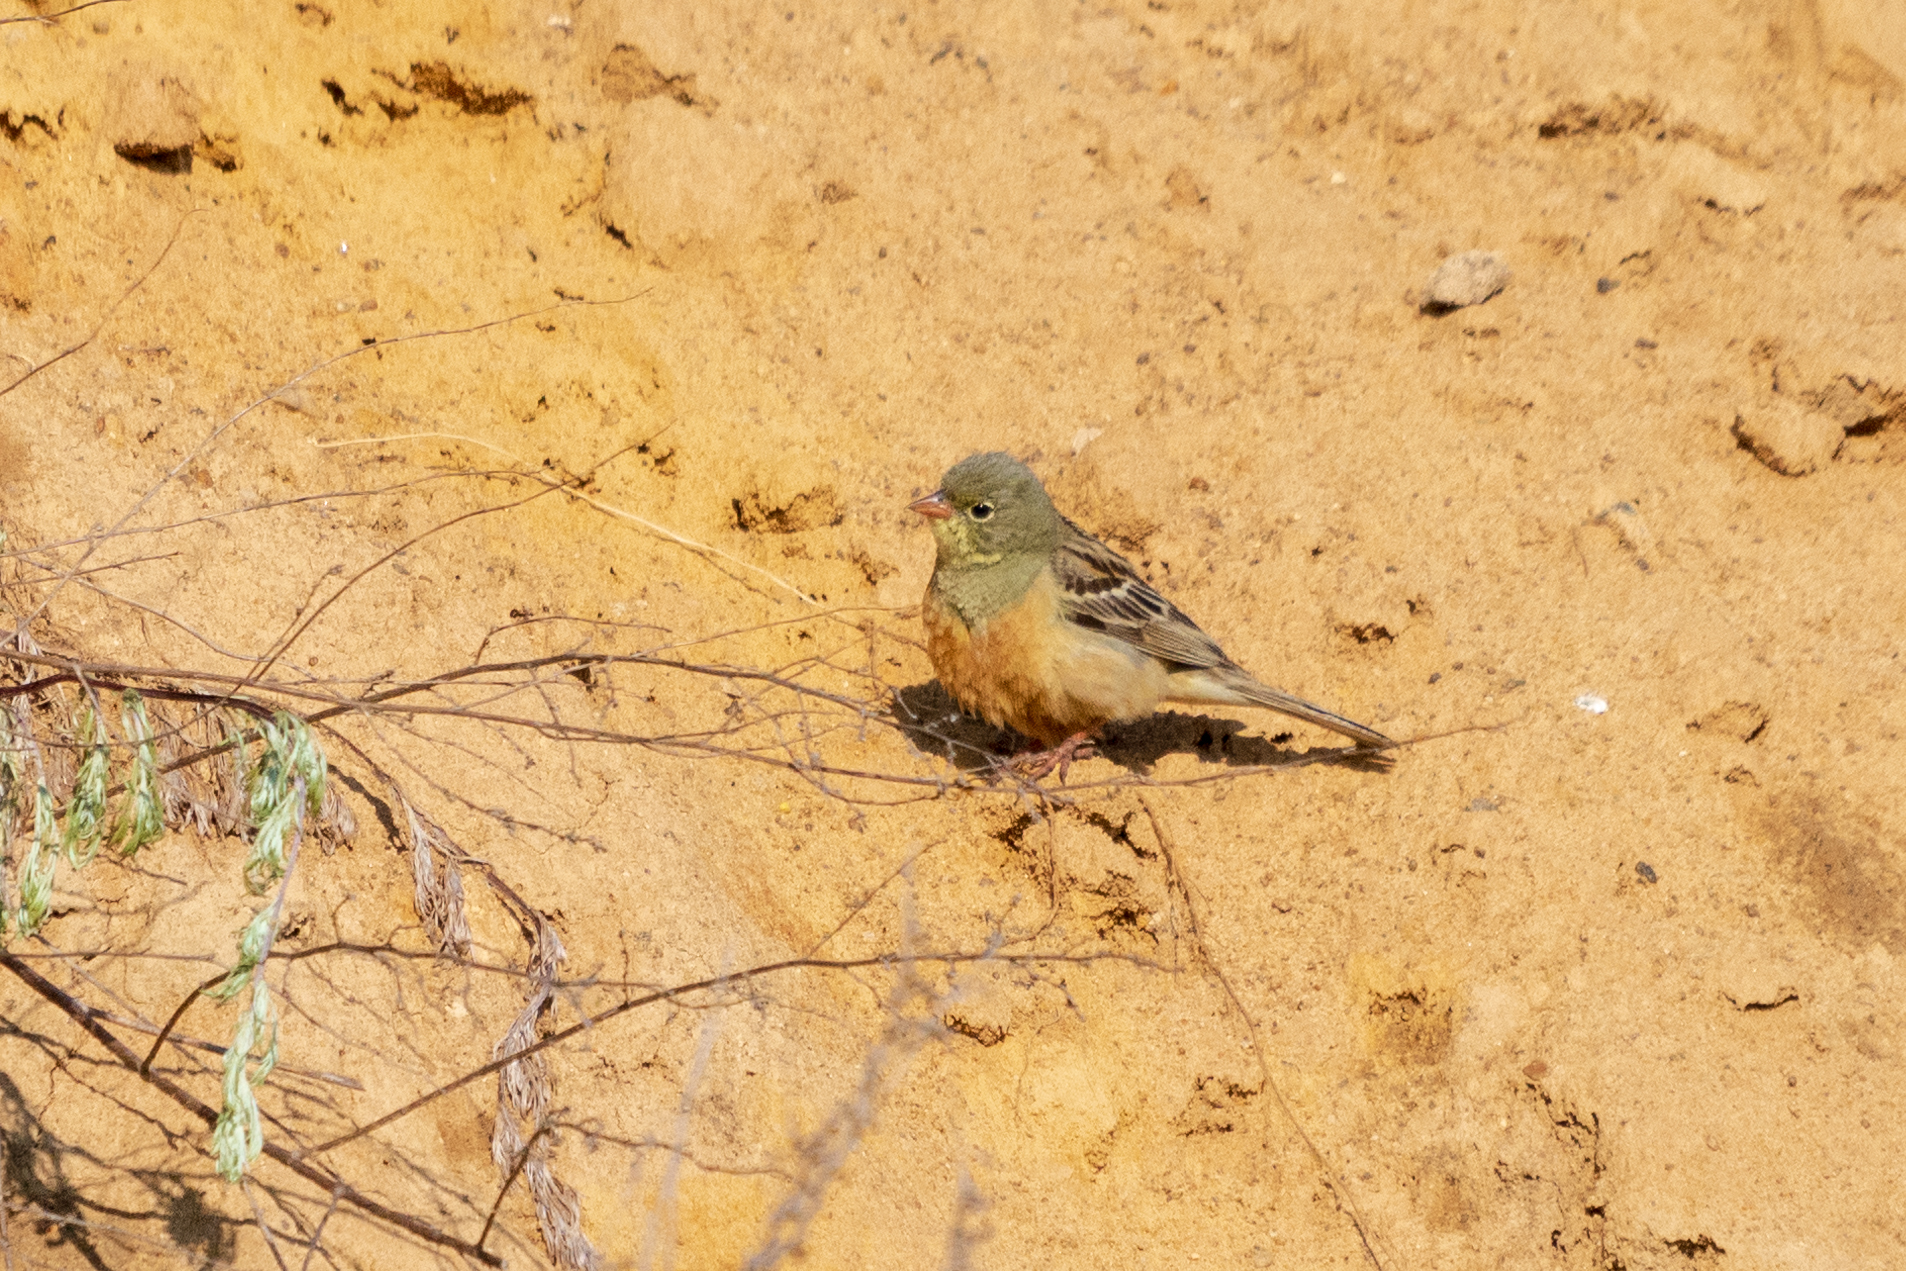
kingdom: Animalia
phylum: Chordata
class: Aves
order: Passeriformes
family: Emberizidae
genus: Emberiza
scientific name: Emberiza hortulana
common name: Ortolan bunting
